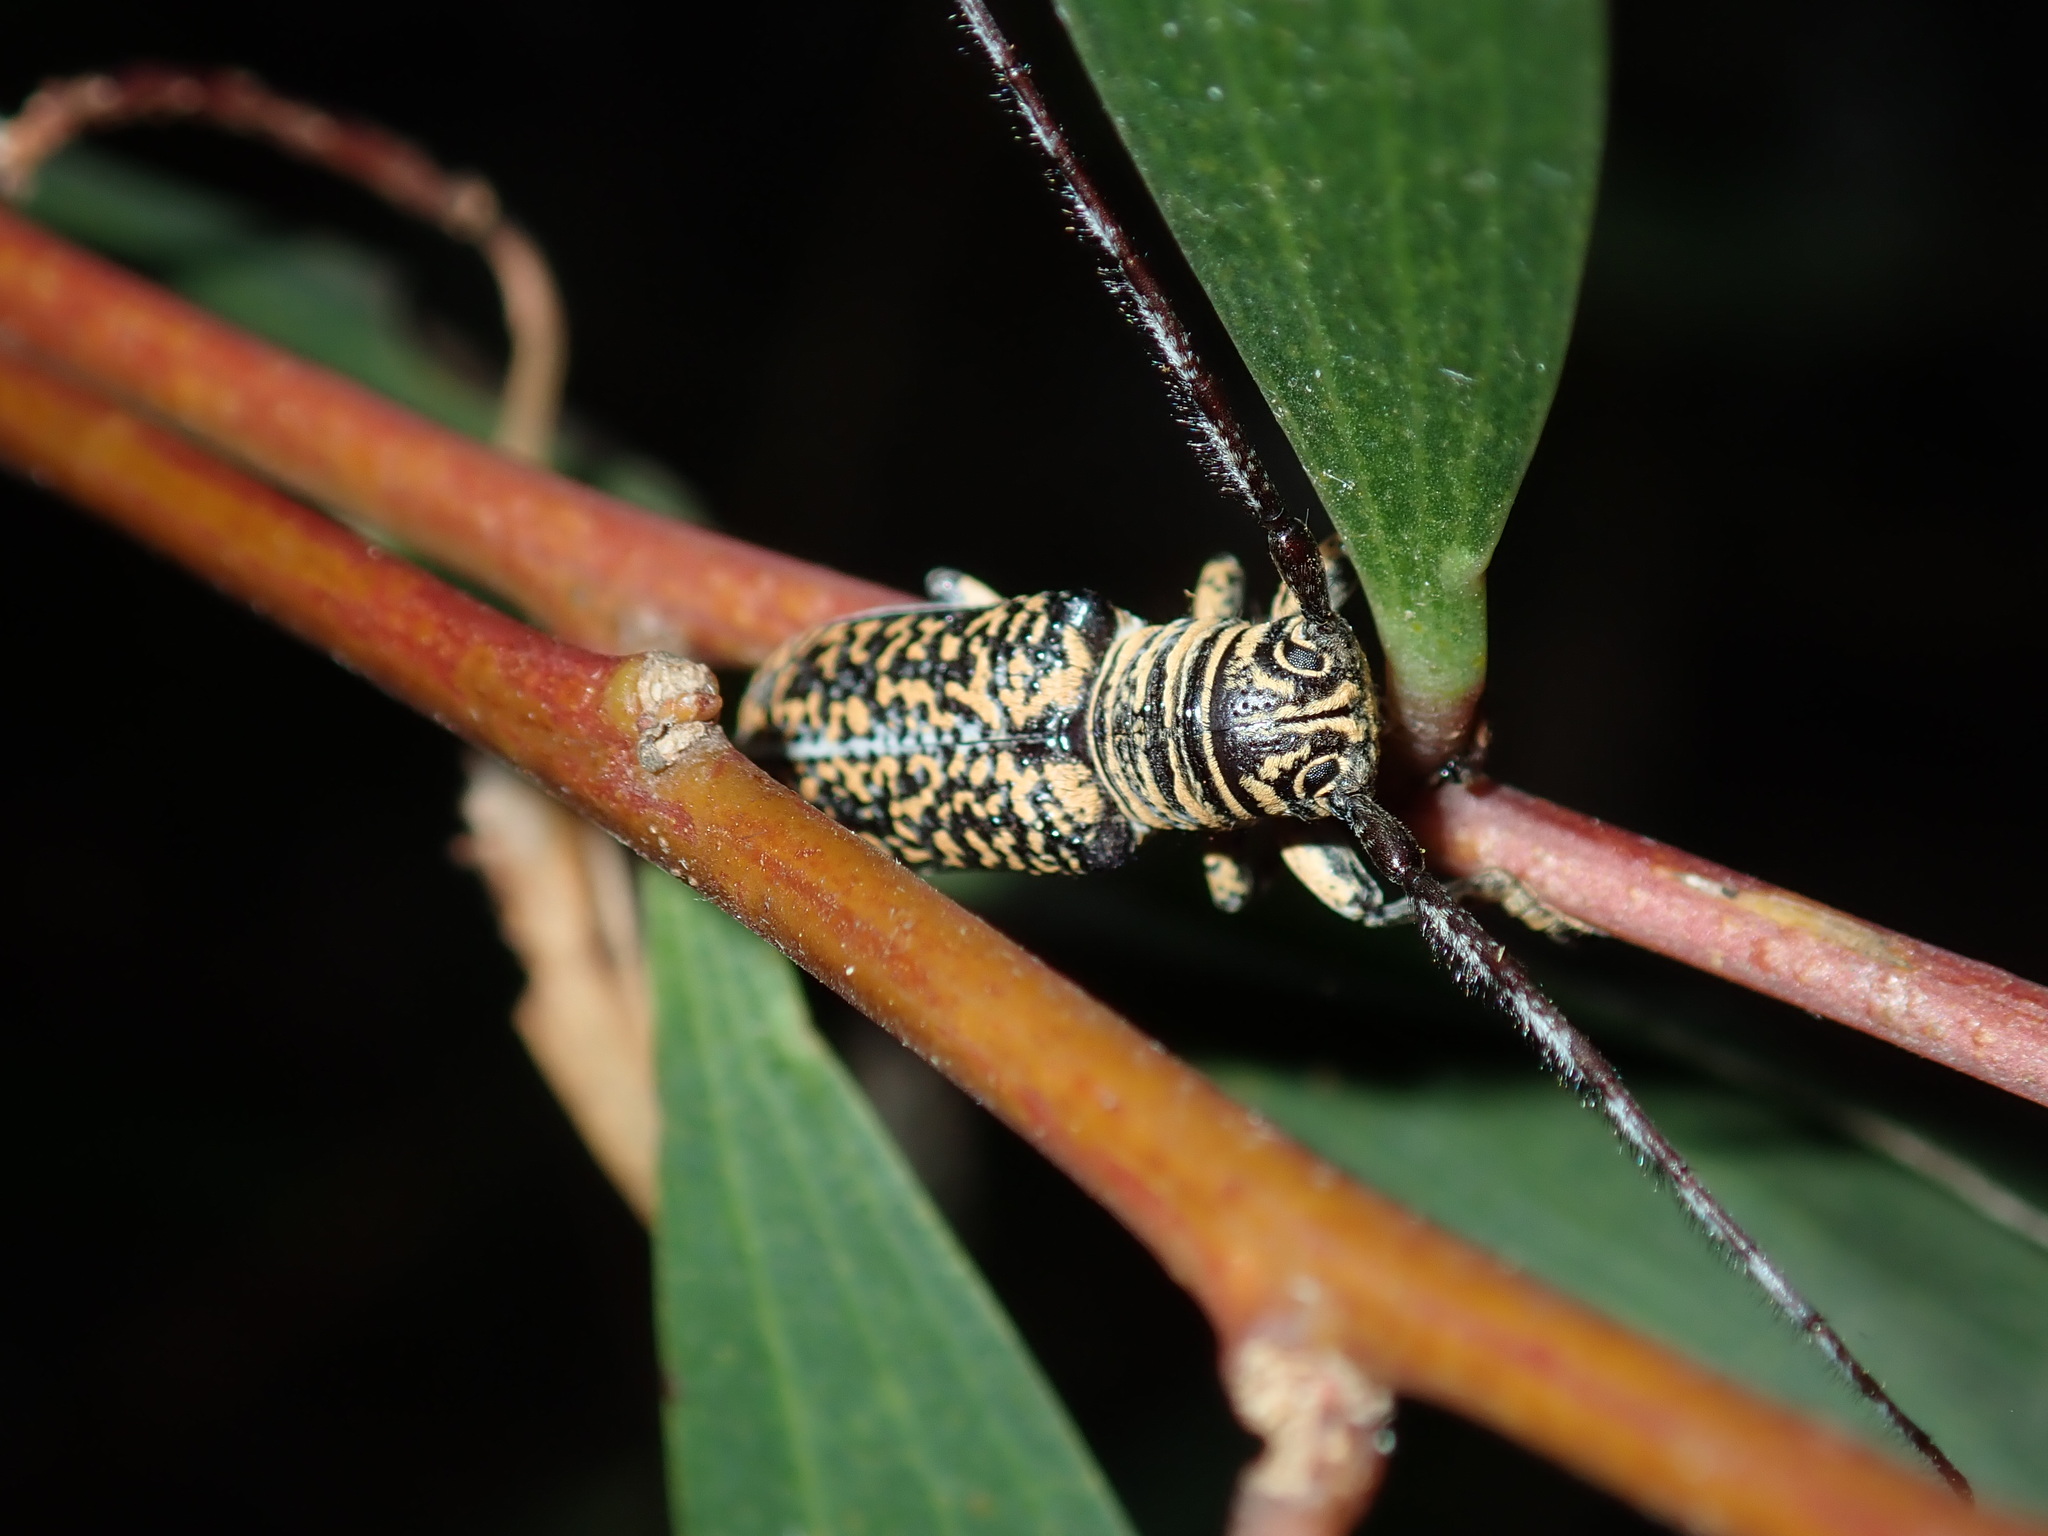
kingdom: Animalia
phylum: Arthropoda
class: Insecta
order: Coleoptera
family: Cerambycidae
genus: Rhytiphora
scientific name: Rhytiphora vestigialis
